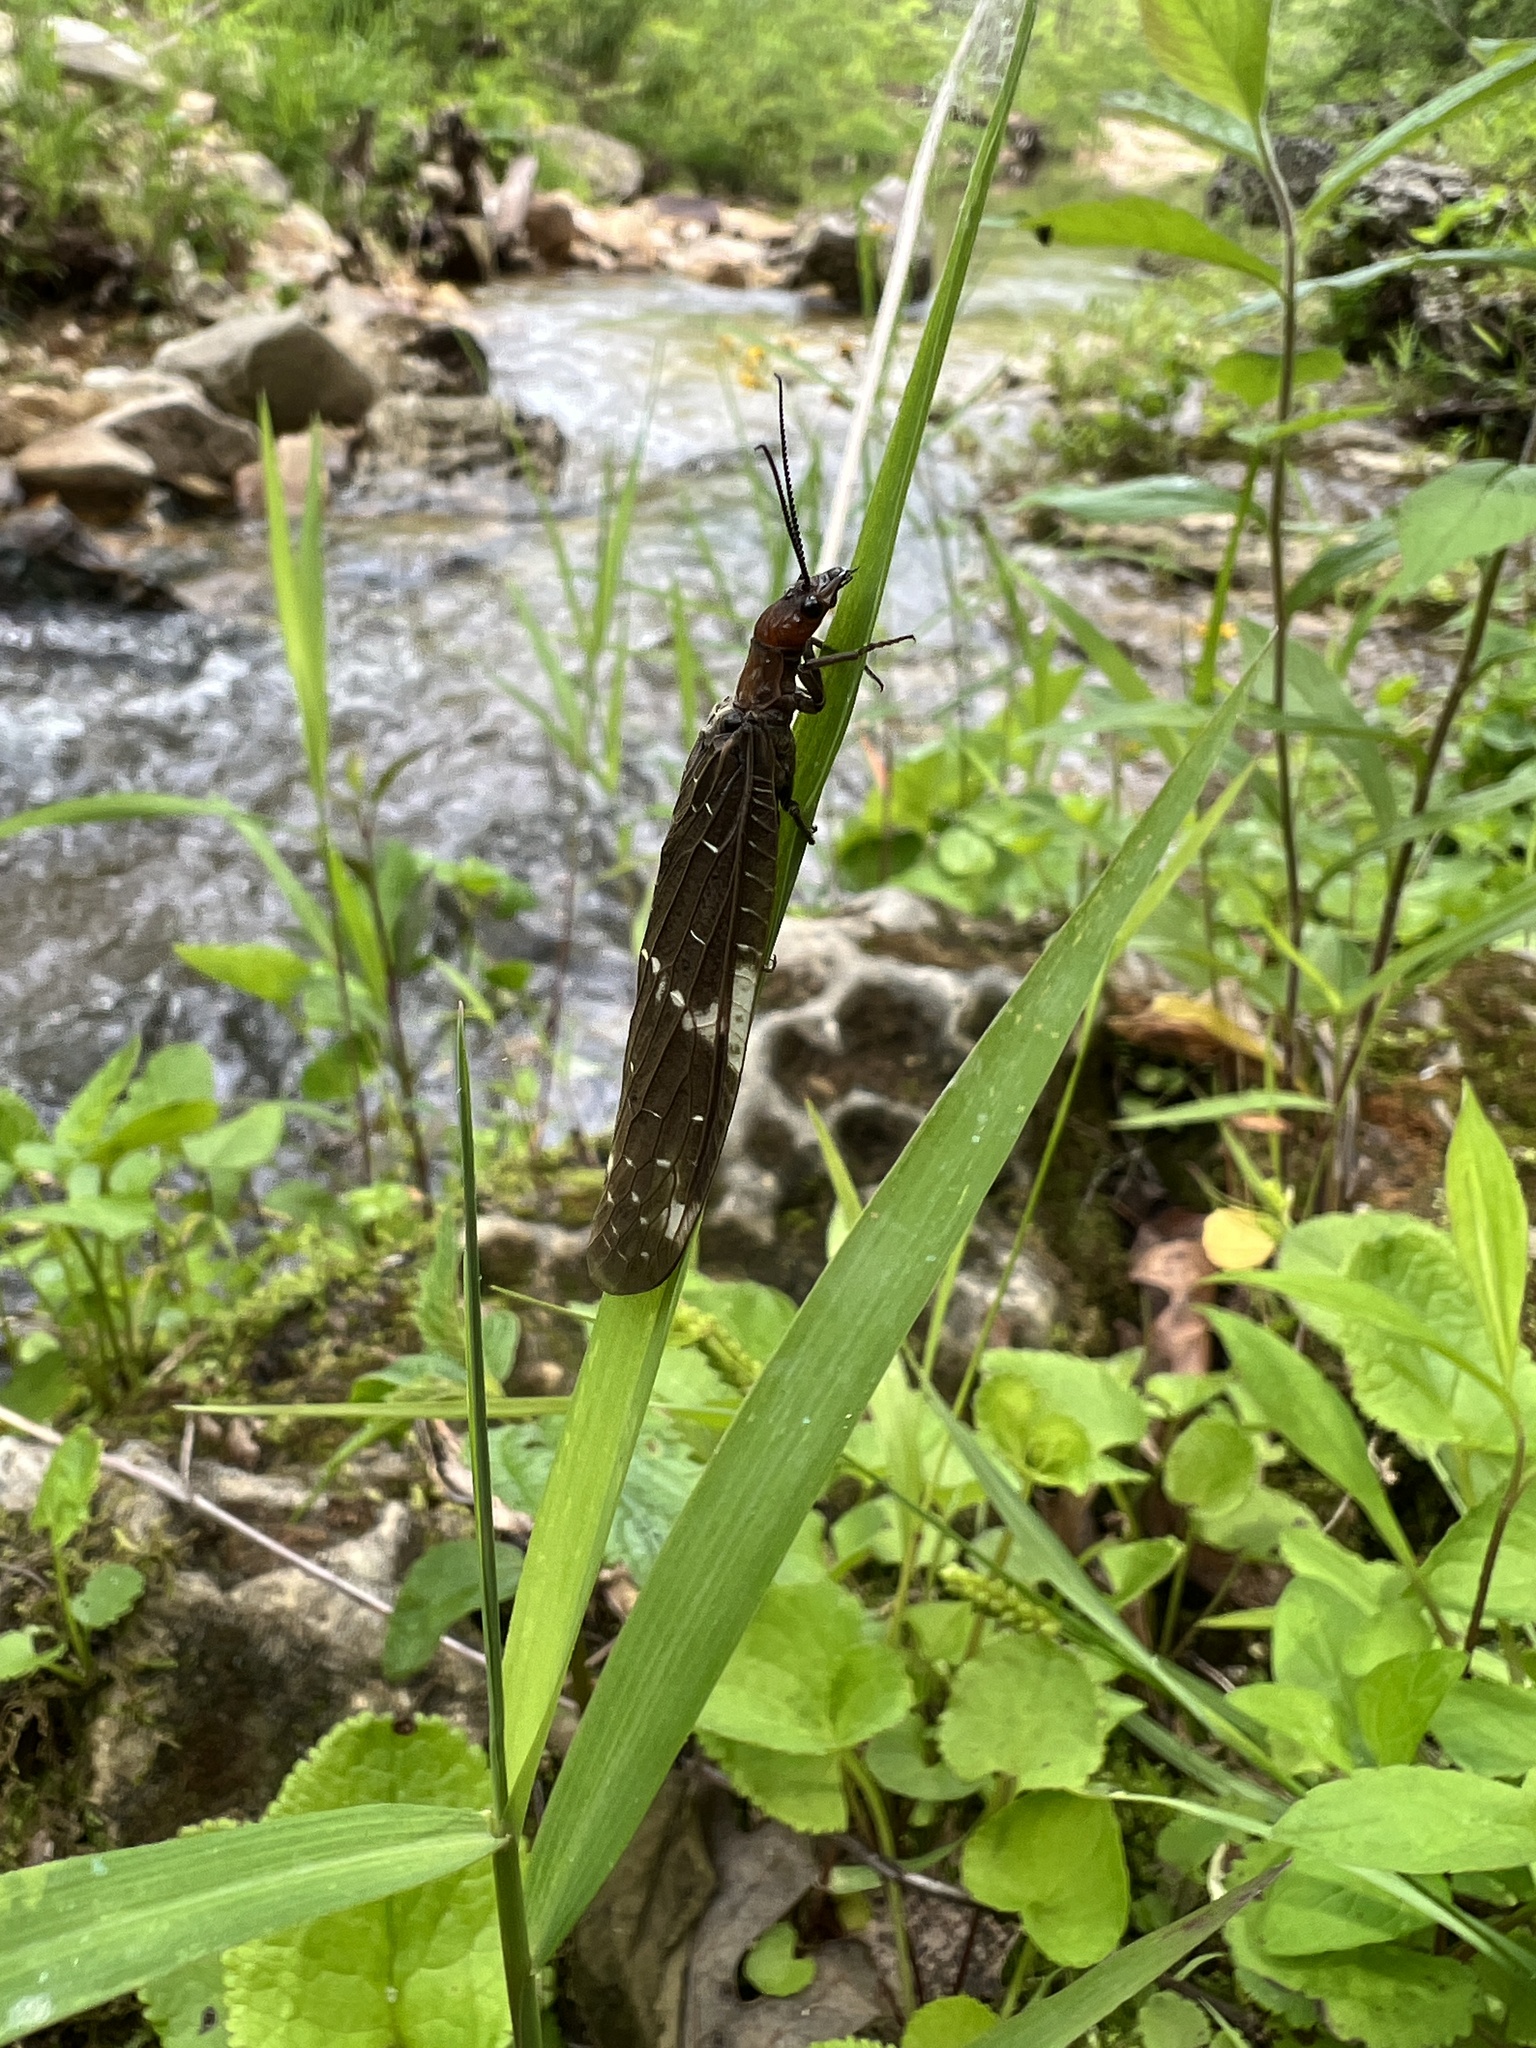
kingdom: Animalia
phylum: Arthropoda
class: Insecta
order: Megaloptera
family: Corydalidae
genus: Nigronia
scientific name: Nigronia serricornis
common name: Serrate dark fishfly
